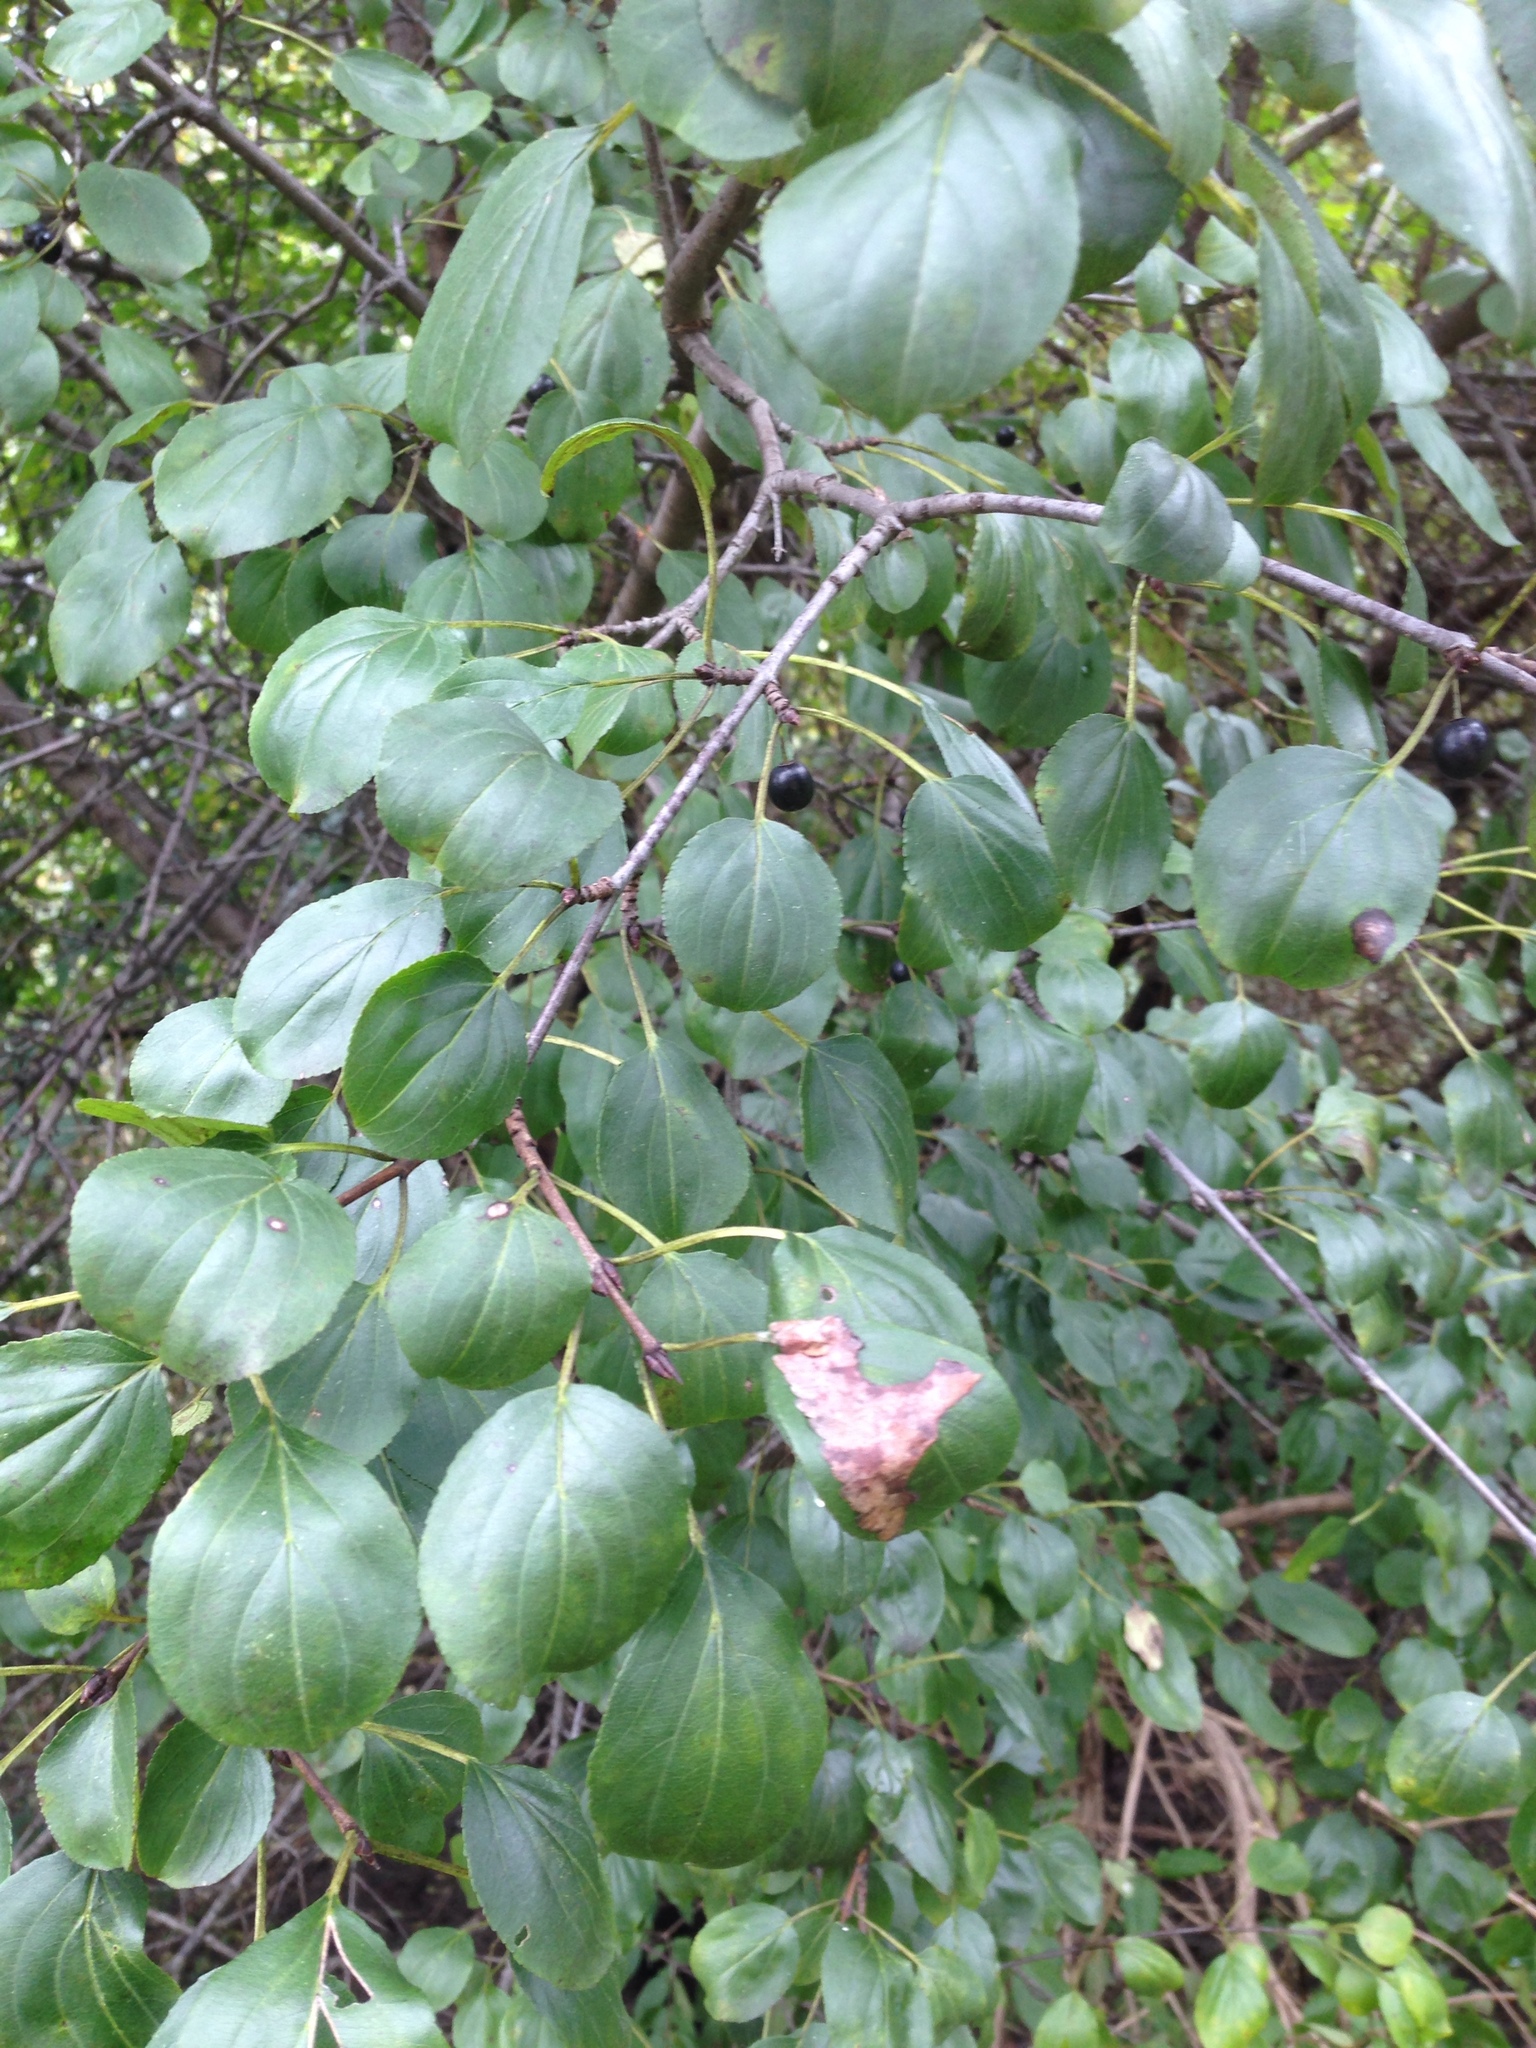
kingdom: Plantae
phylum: Tracheophyta
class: Magnoliopsida
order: Rosales
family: Rhamnaceae
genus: Rhamnus
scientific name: Rhamnus cathartica
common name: Common buckthorn
